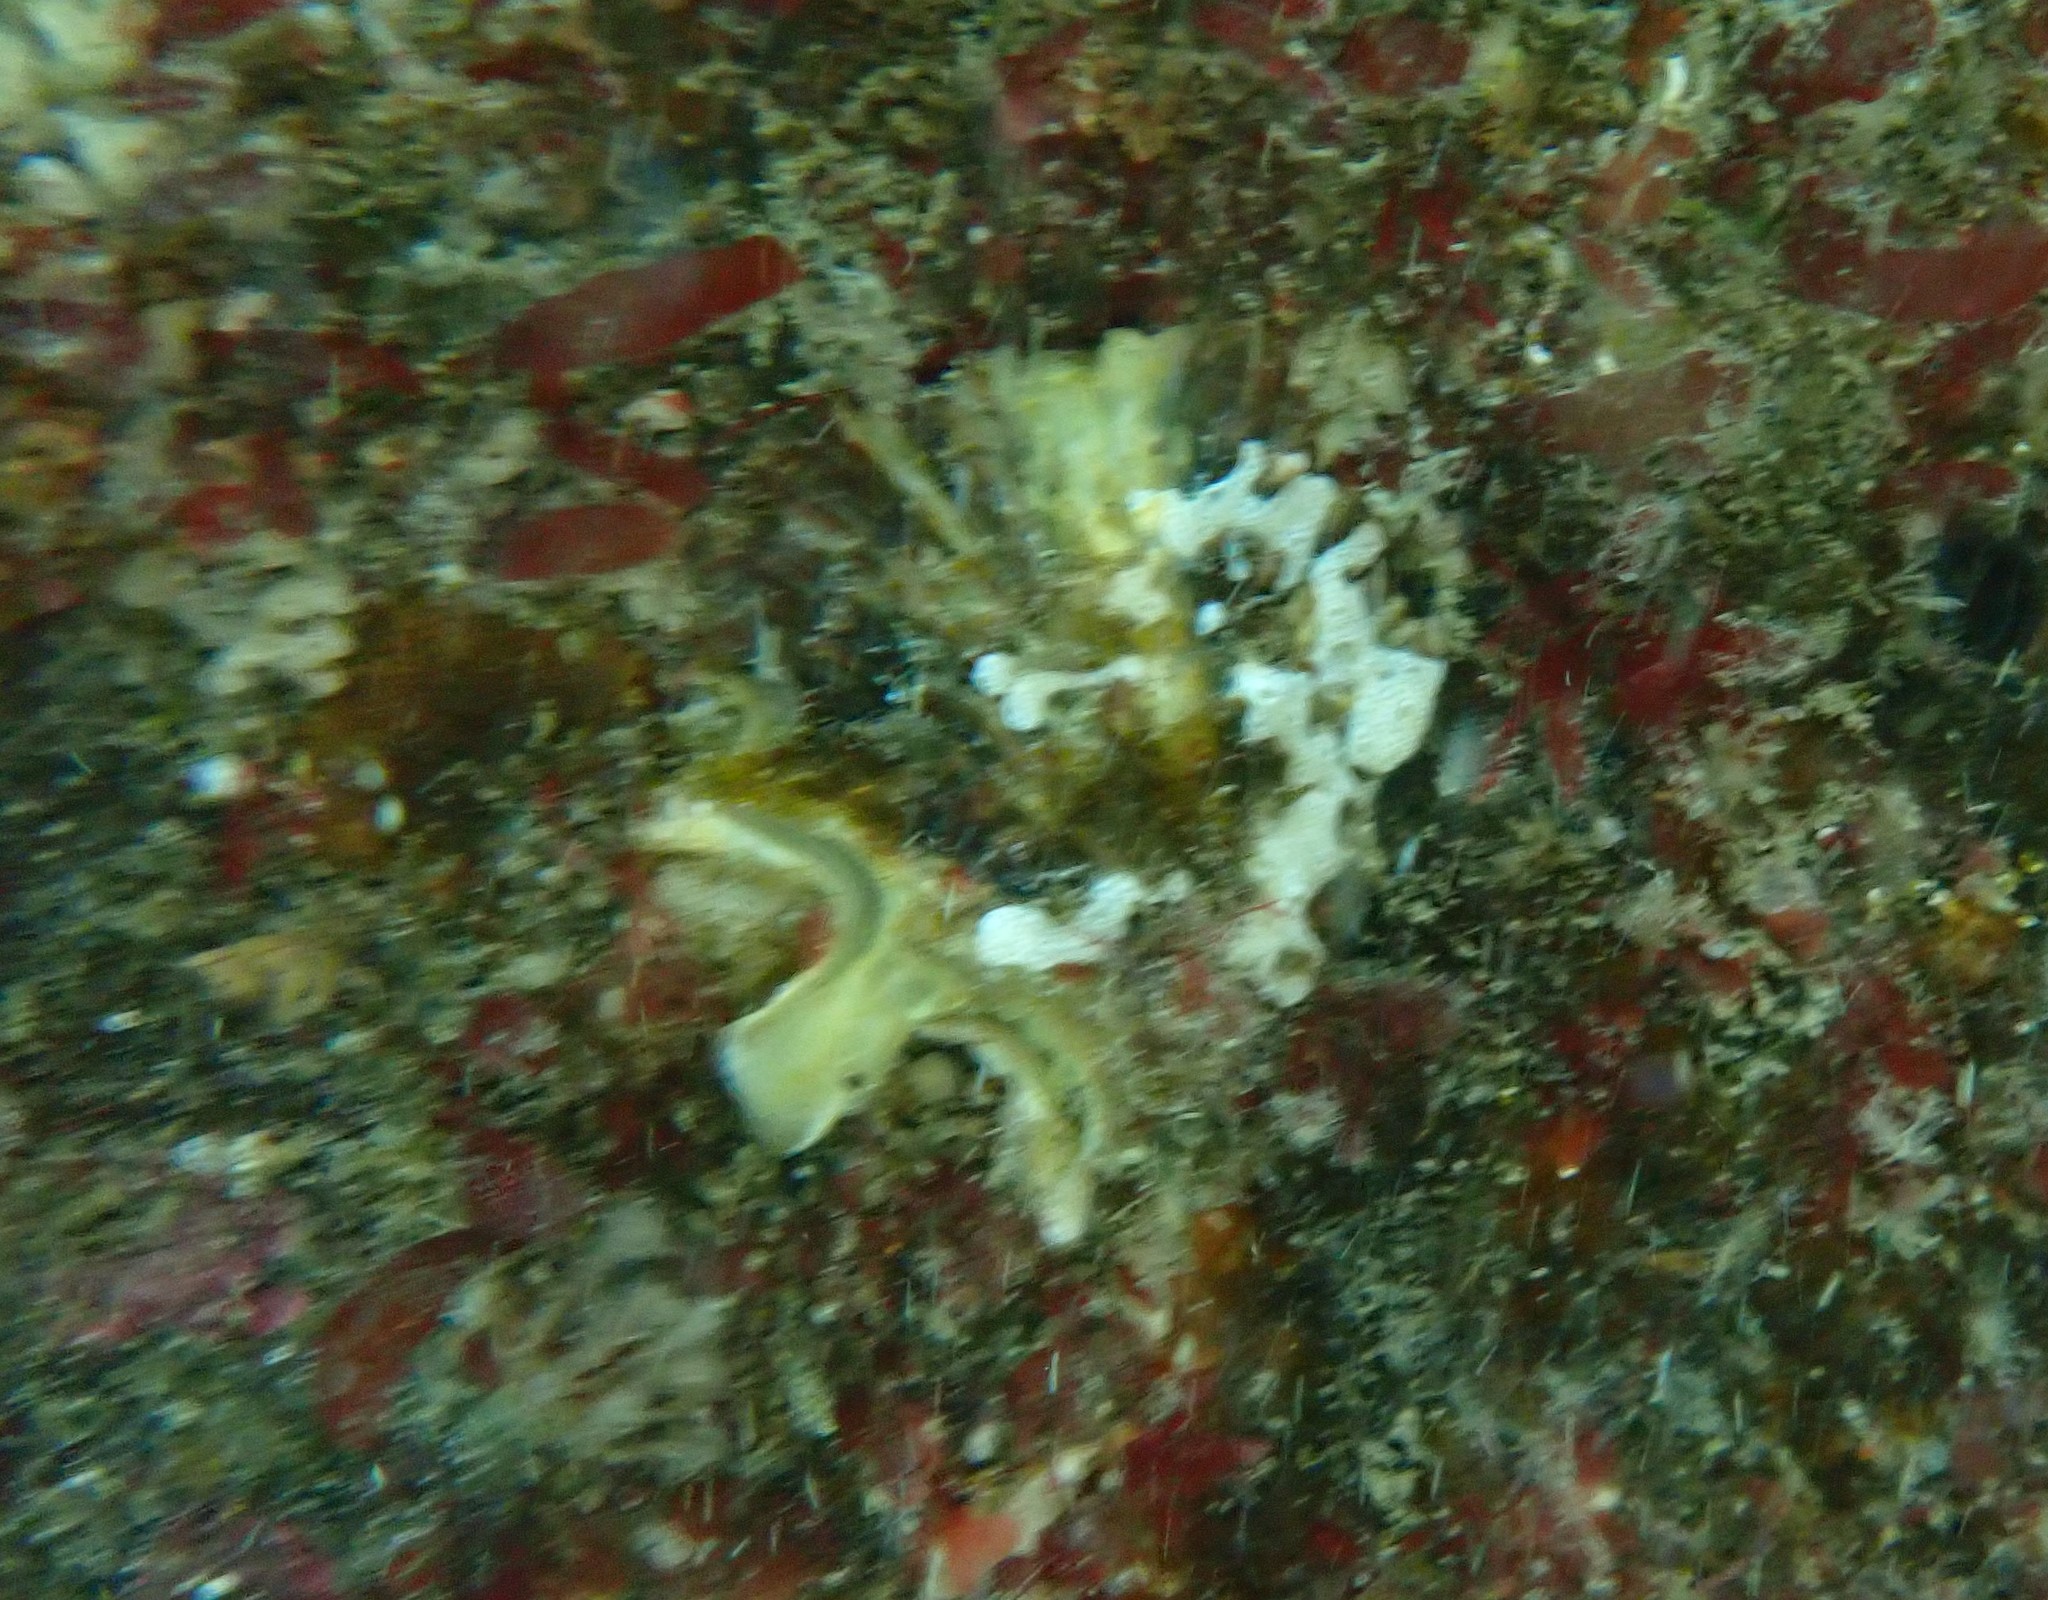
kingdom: Animalia
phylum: Mollusca
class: Bivalvia
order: Ostreida
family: Ostreidae
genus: Magallana
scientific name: Magallana gigas
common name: Pacific oyster
